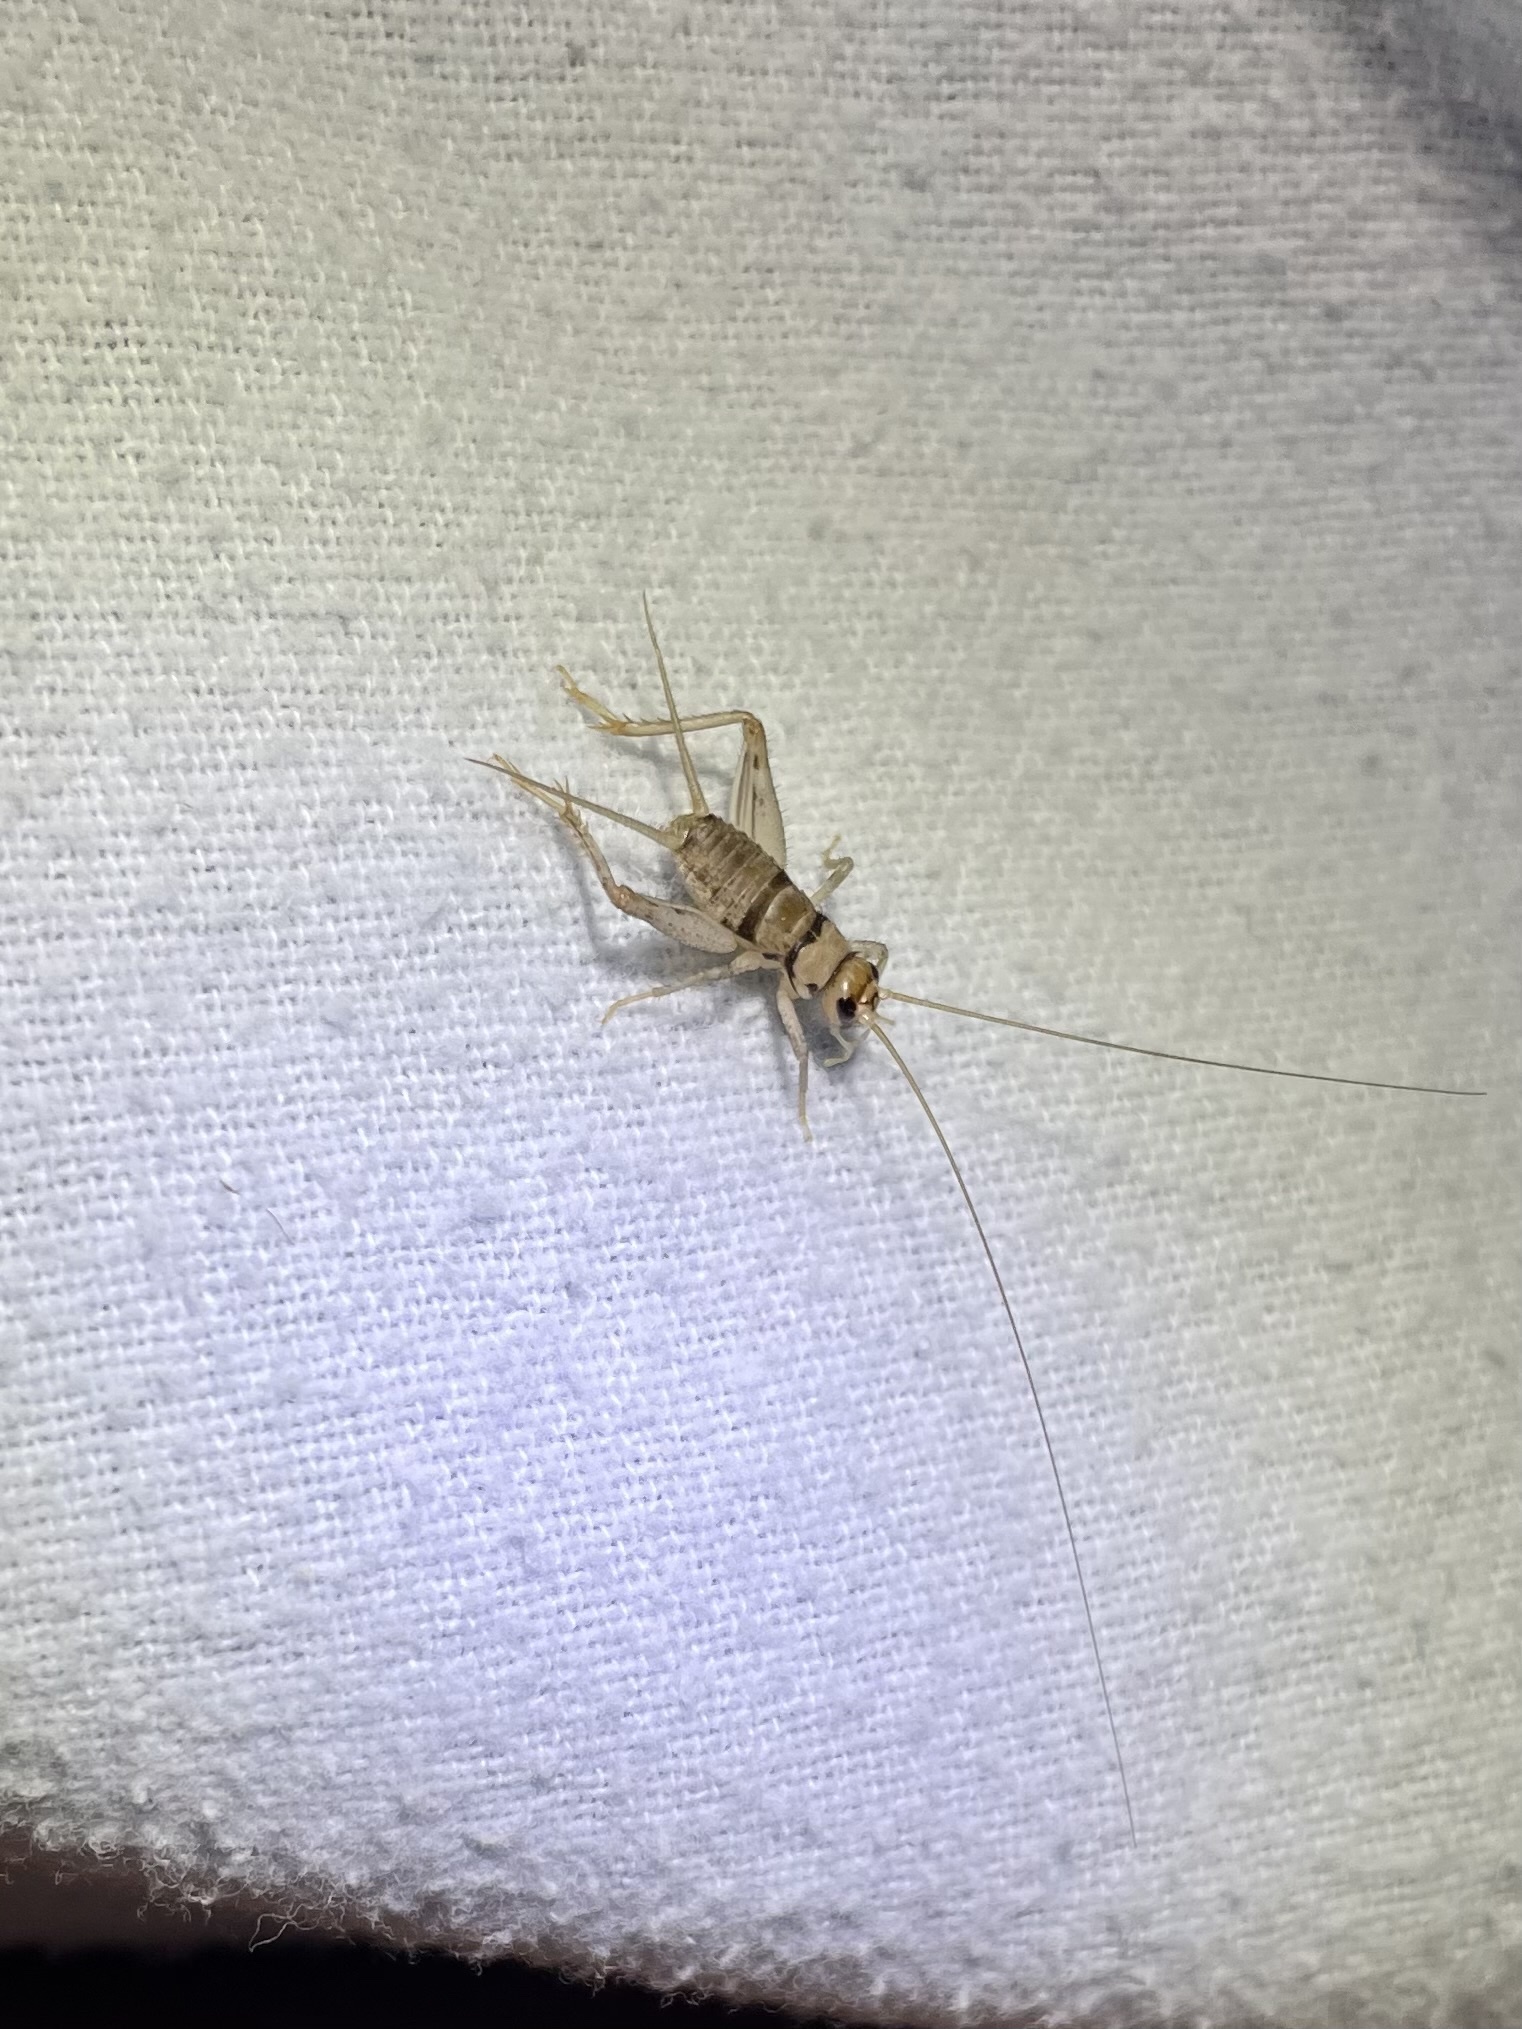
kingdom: Animalia
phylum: Arthropoda
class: Insecta
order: Orthoptera
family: Gryllidae
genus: Gryllodes
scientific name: Gryllodes sigillatus
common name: Tropical house cricket
